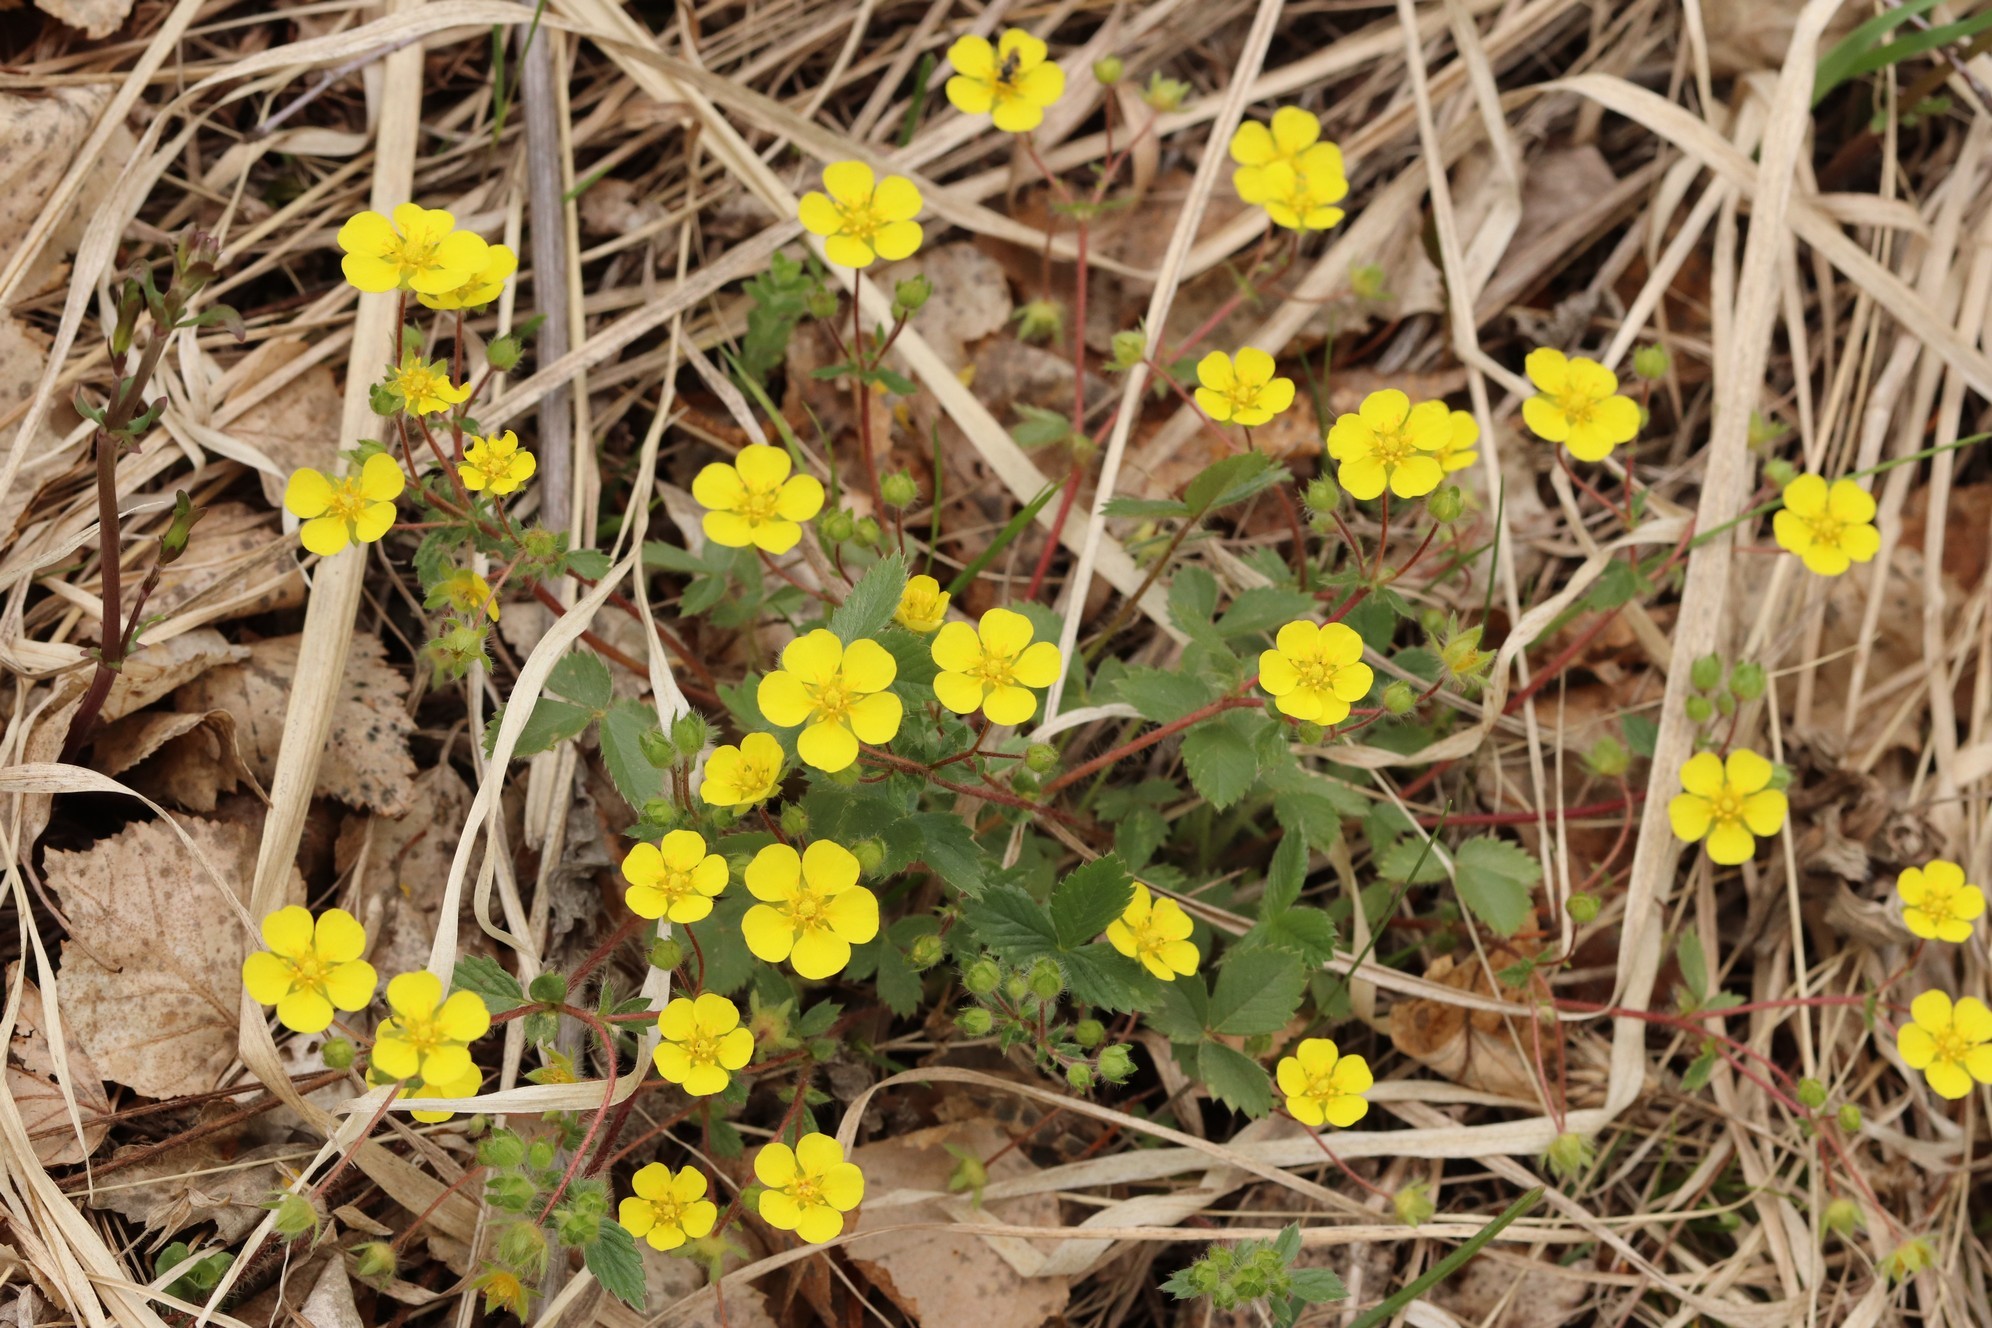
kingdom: Plantae
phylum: Tracheophyta
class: Magnoliopsida
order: Rosales
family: Rosaceae
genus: Potentilla
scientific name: Potentilla fragarioides
